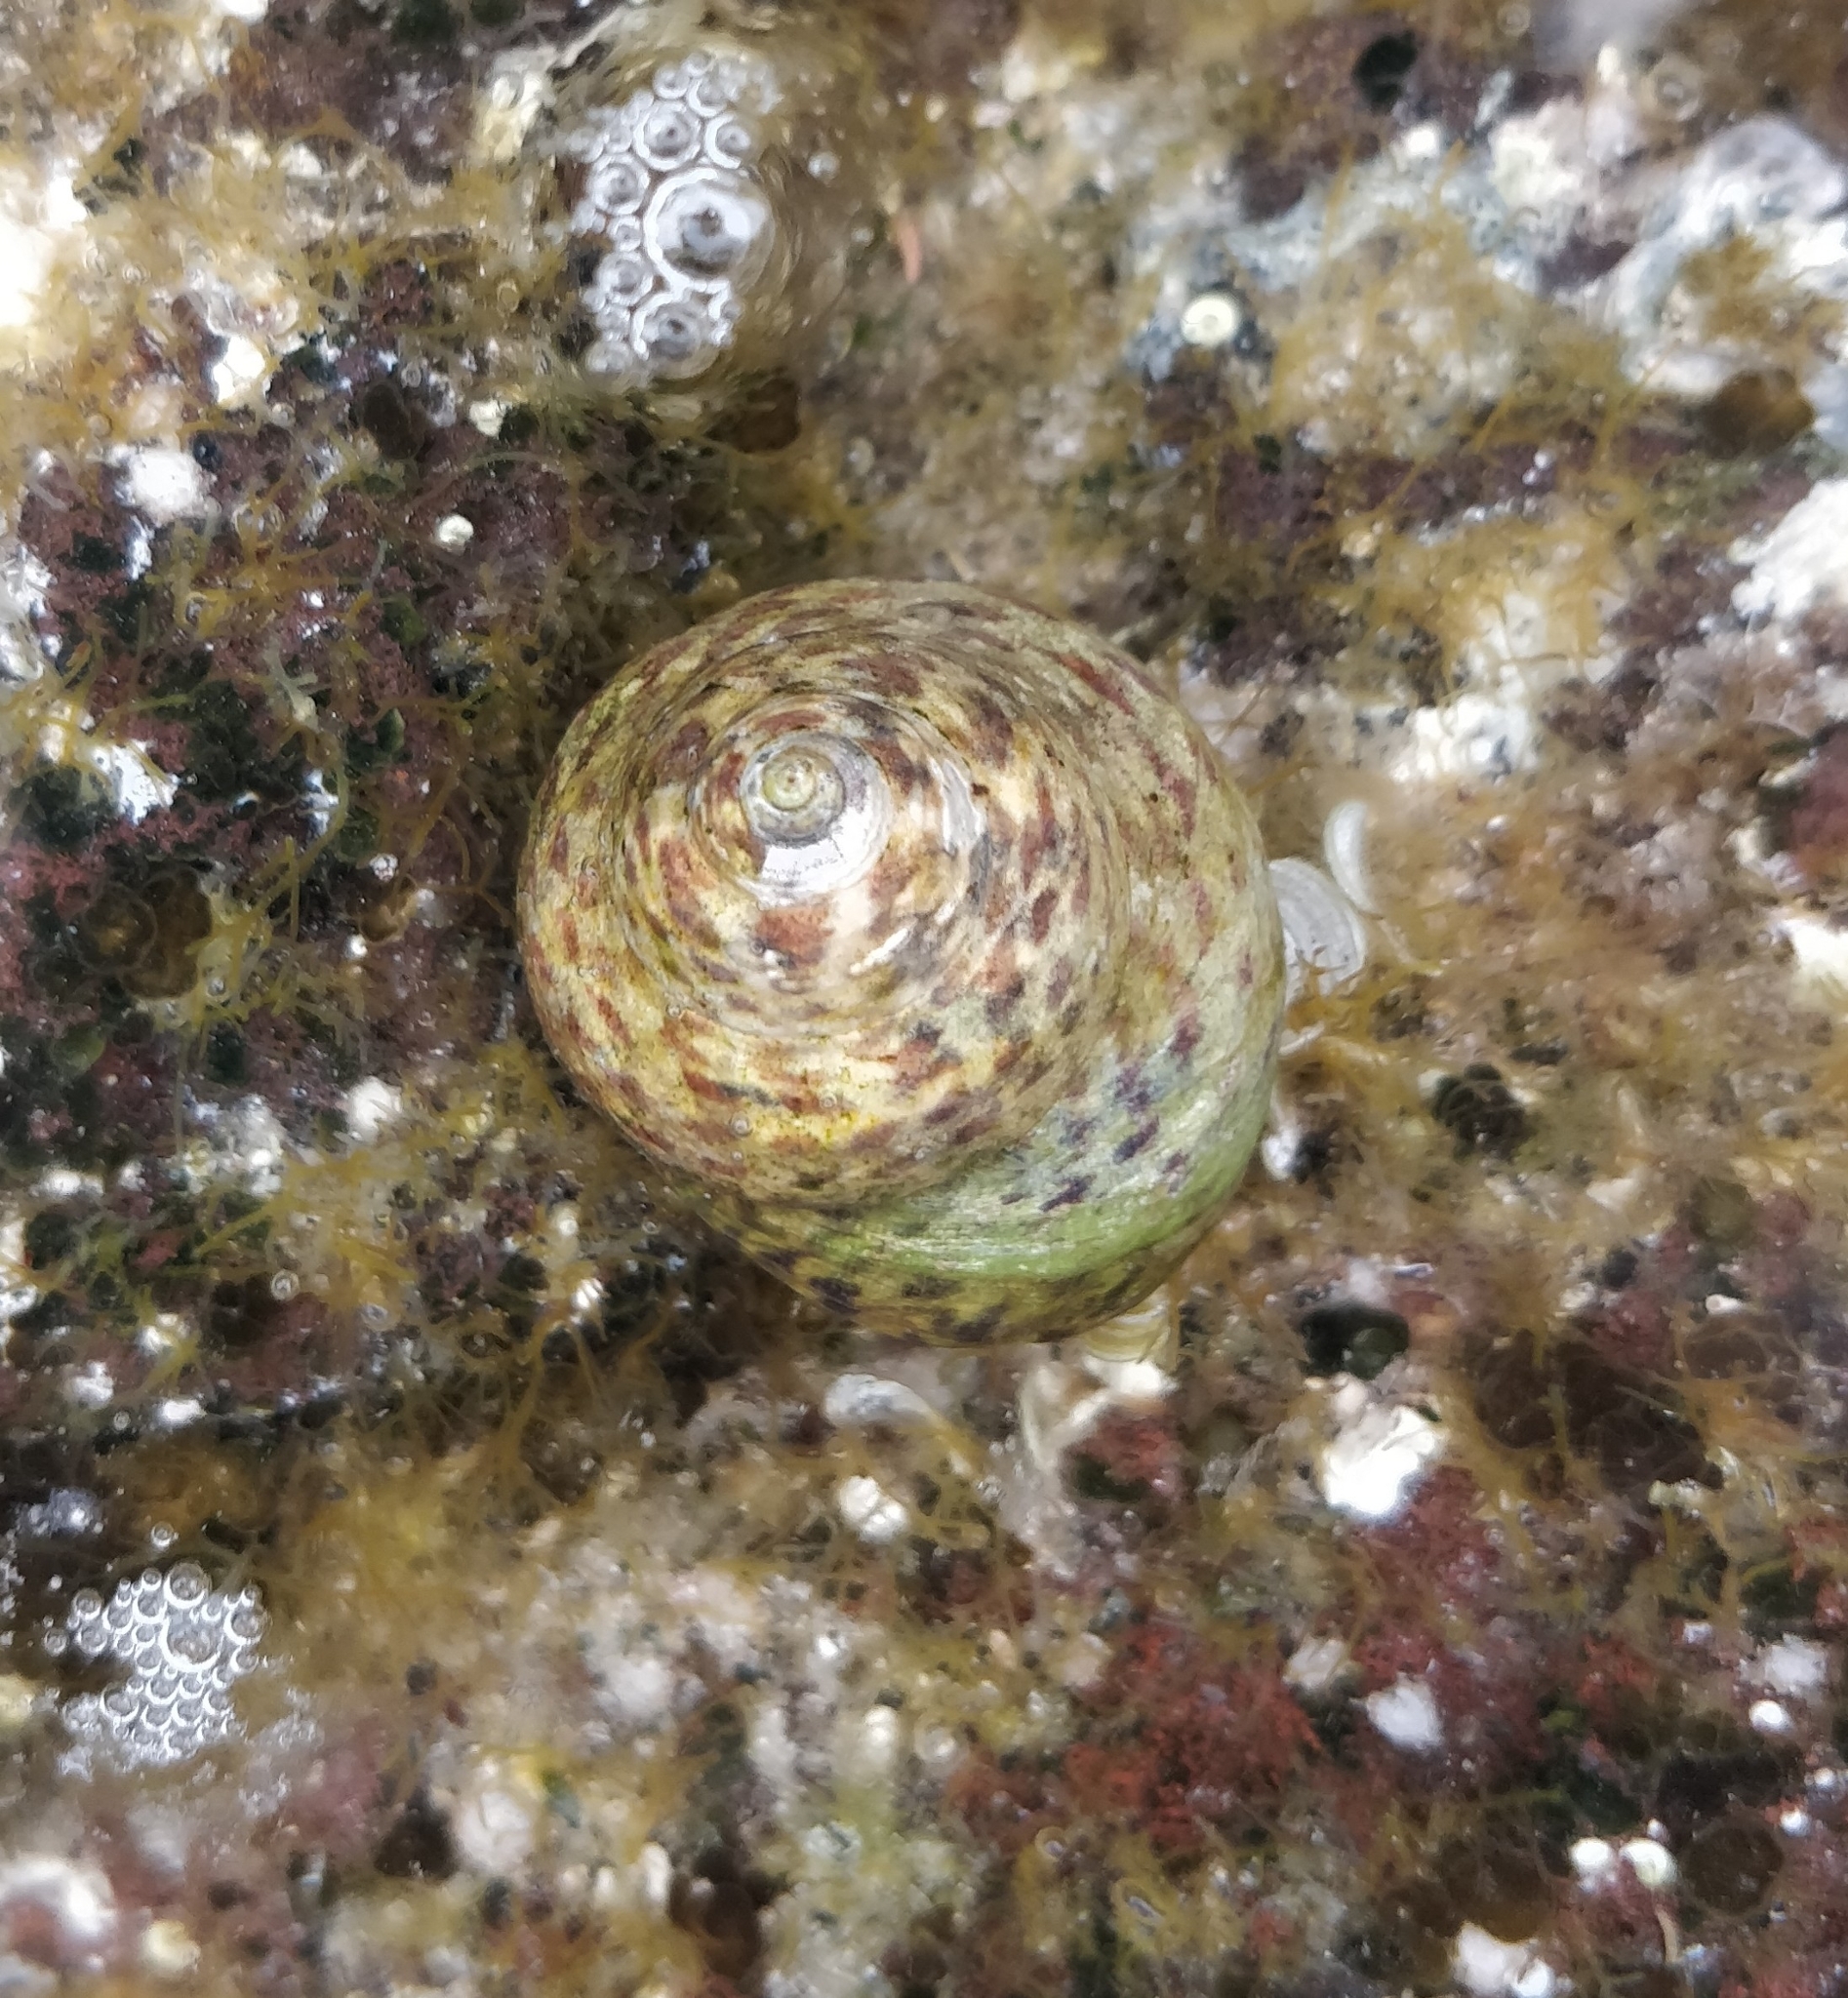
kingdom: Animalia
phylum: Mollusca
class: Gastropoda
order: Trochida
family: Trochidae
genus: Phorcus
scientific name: Phorcus sauciatus
